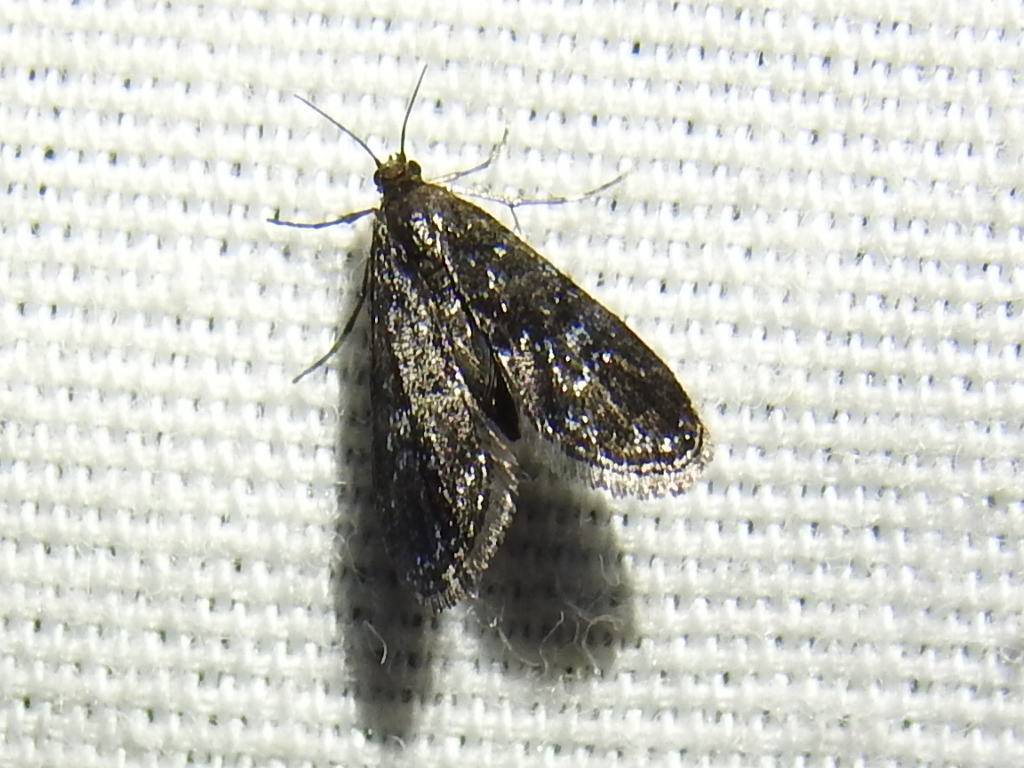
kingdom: Animalia
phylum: Arthropoda
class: Insecta
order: Lepidoptera
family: Crambidae
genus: Elophila
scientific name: Elophila tinealis
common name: Black duckweed moth
